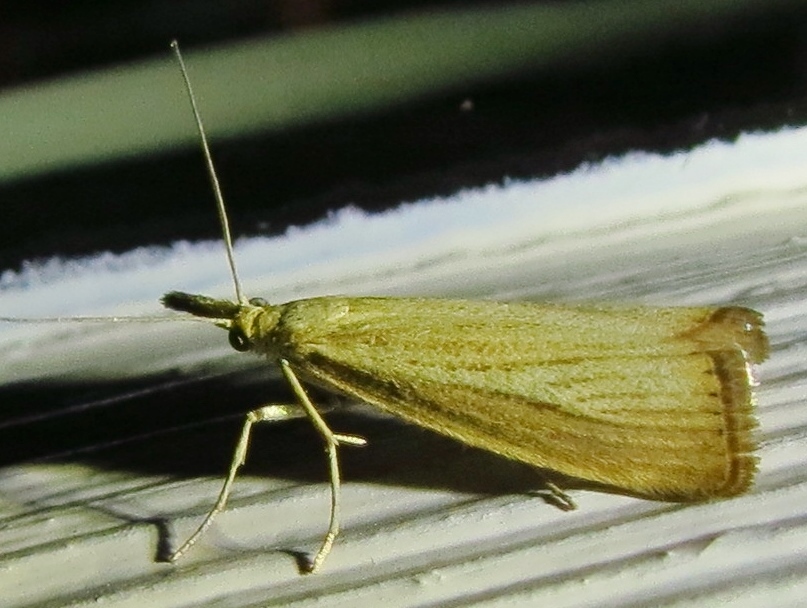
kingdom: Animalia
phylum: Arthropoda
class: Insecta
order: Lepidoptera
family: Crambidae
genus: Agriphila
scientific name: Agriphila straminella
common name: Straw grass-veneer
